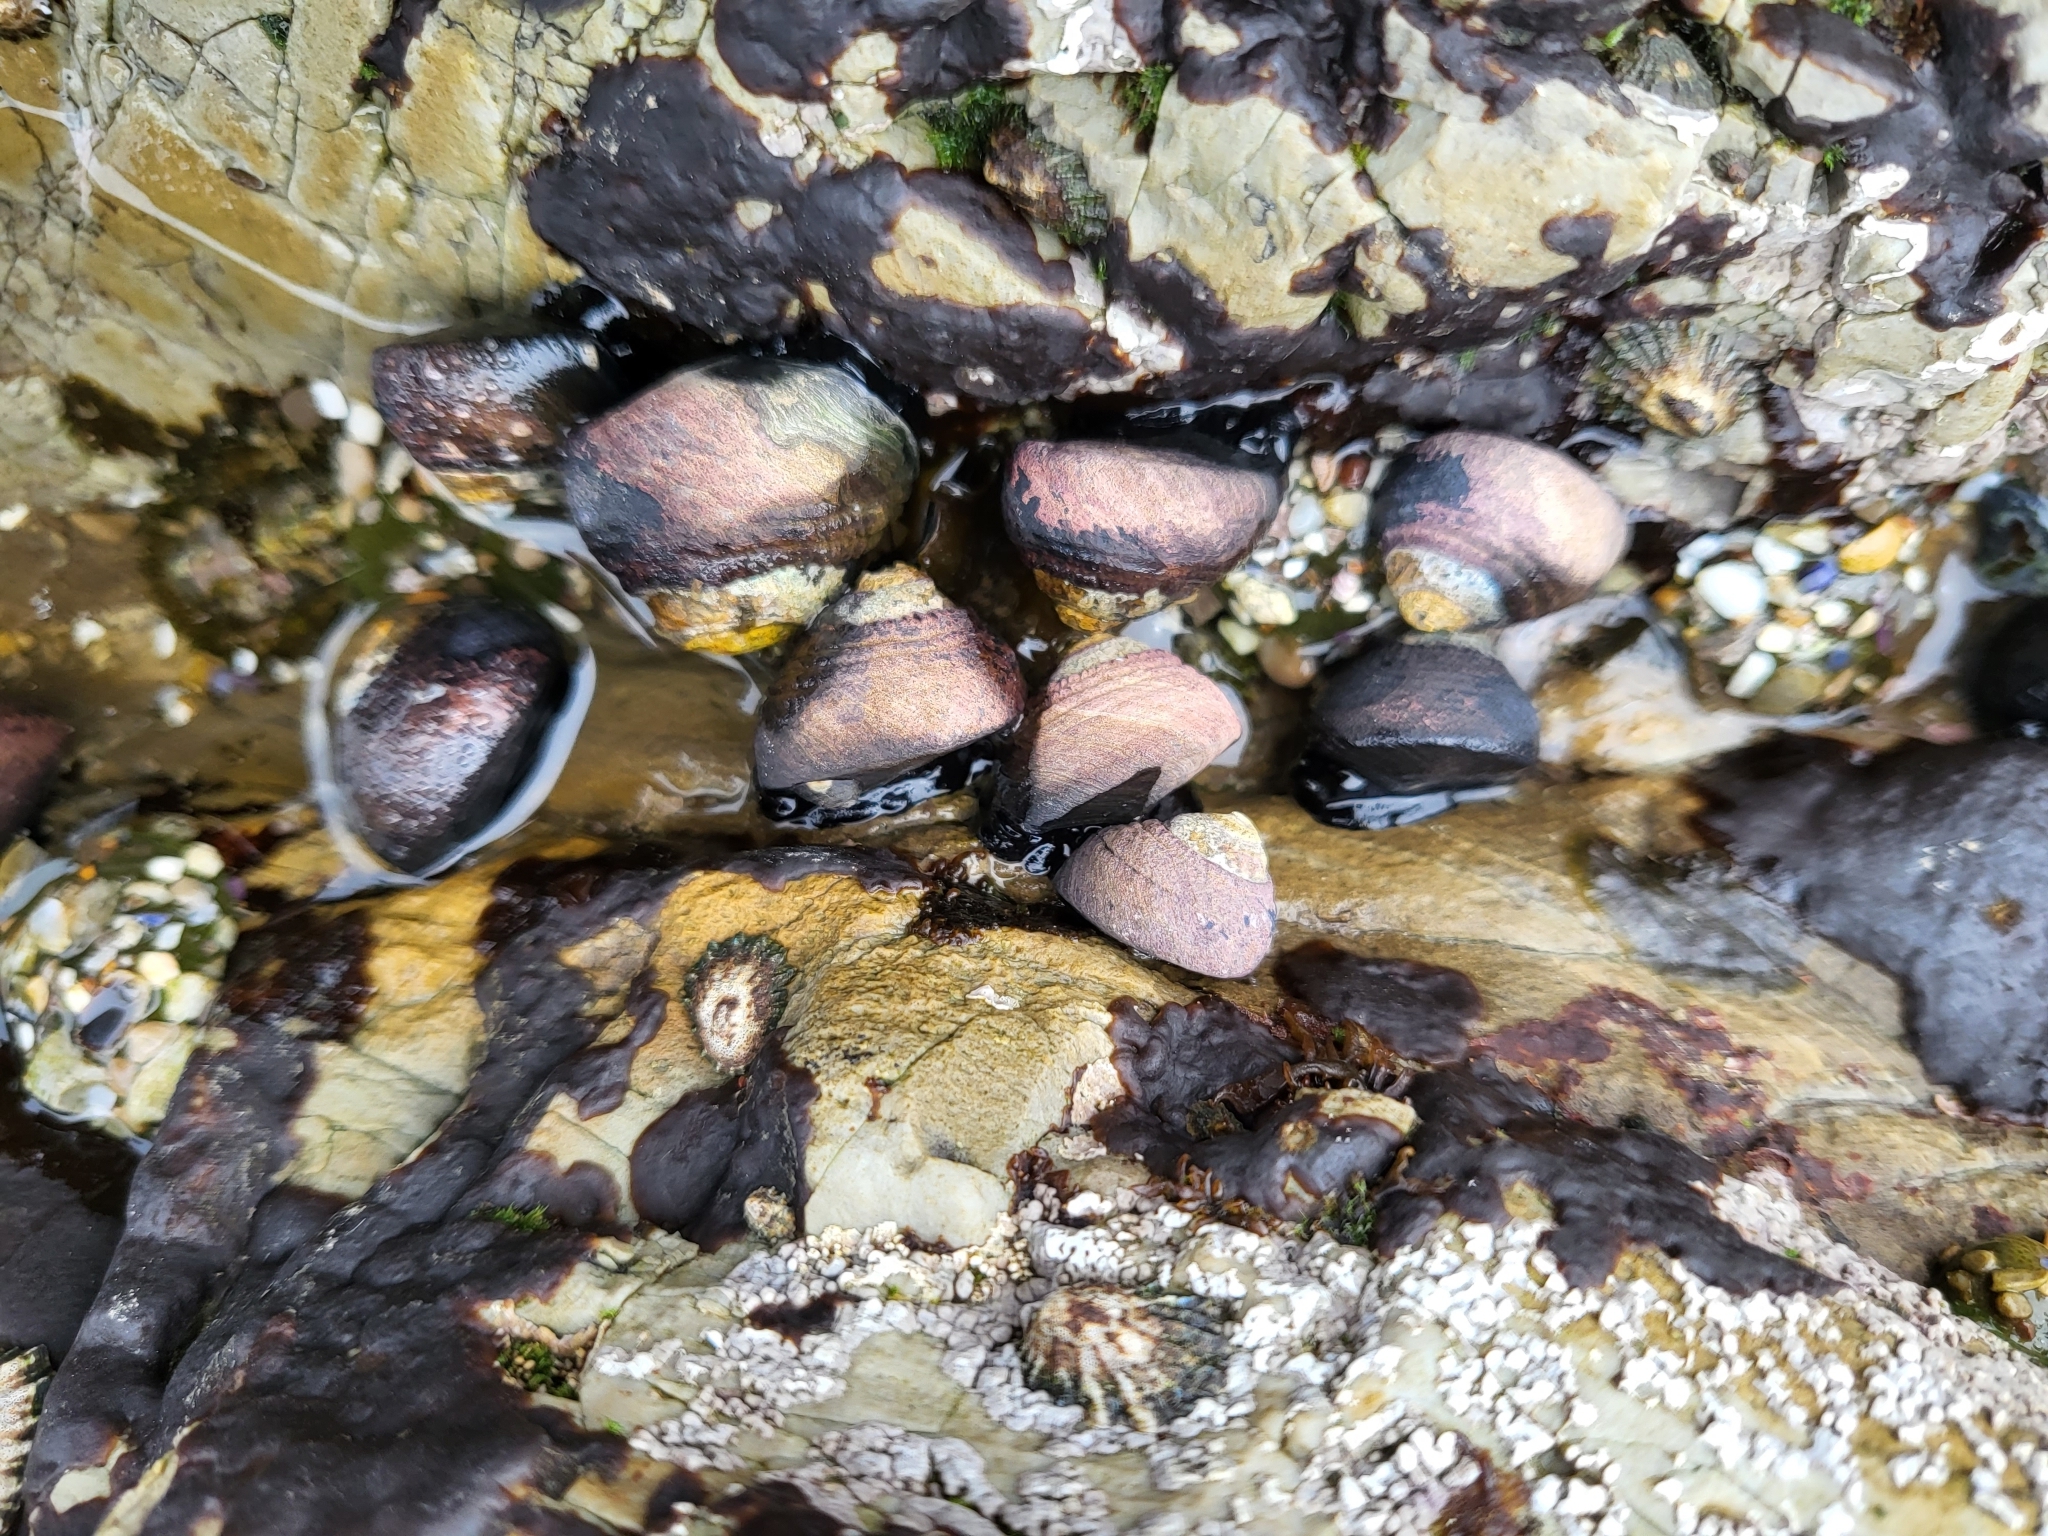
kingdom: Animalia
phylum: Mollusca
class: Gastropoda
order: Trochida
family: Tegulidae
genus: Tegula
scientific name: Tegula funebralis
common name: Black tegula
